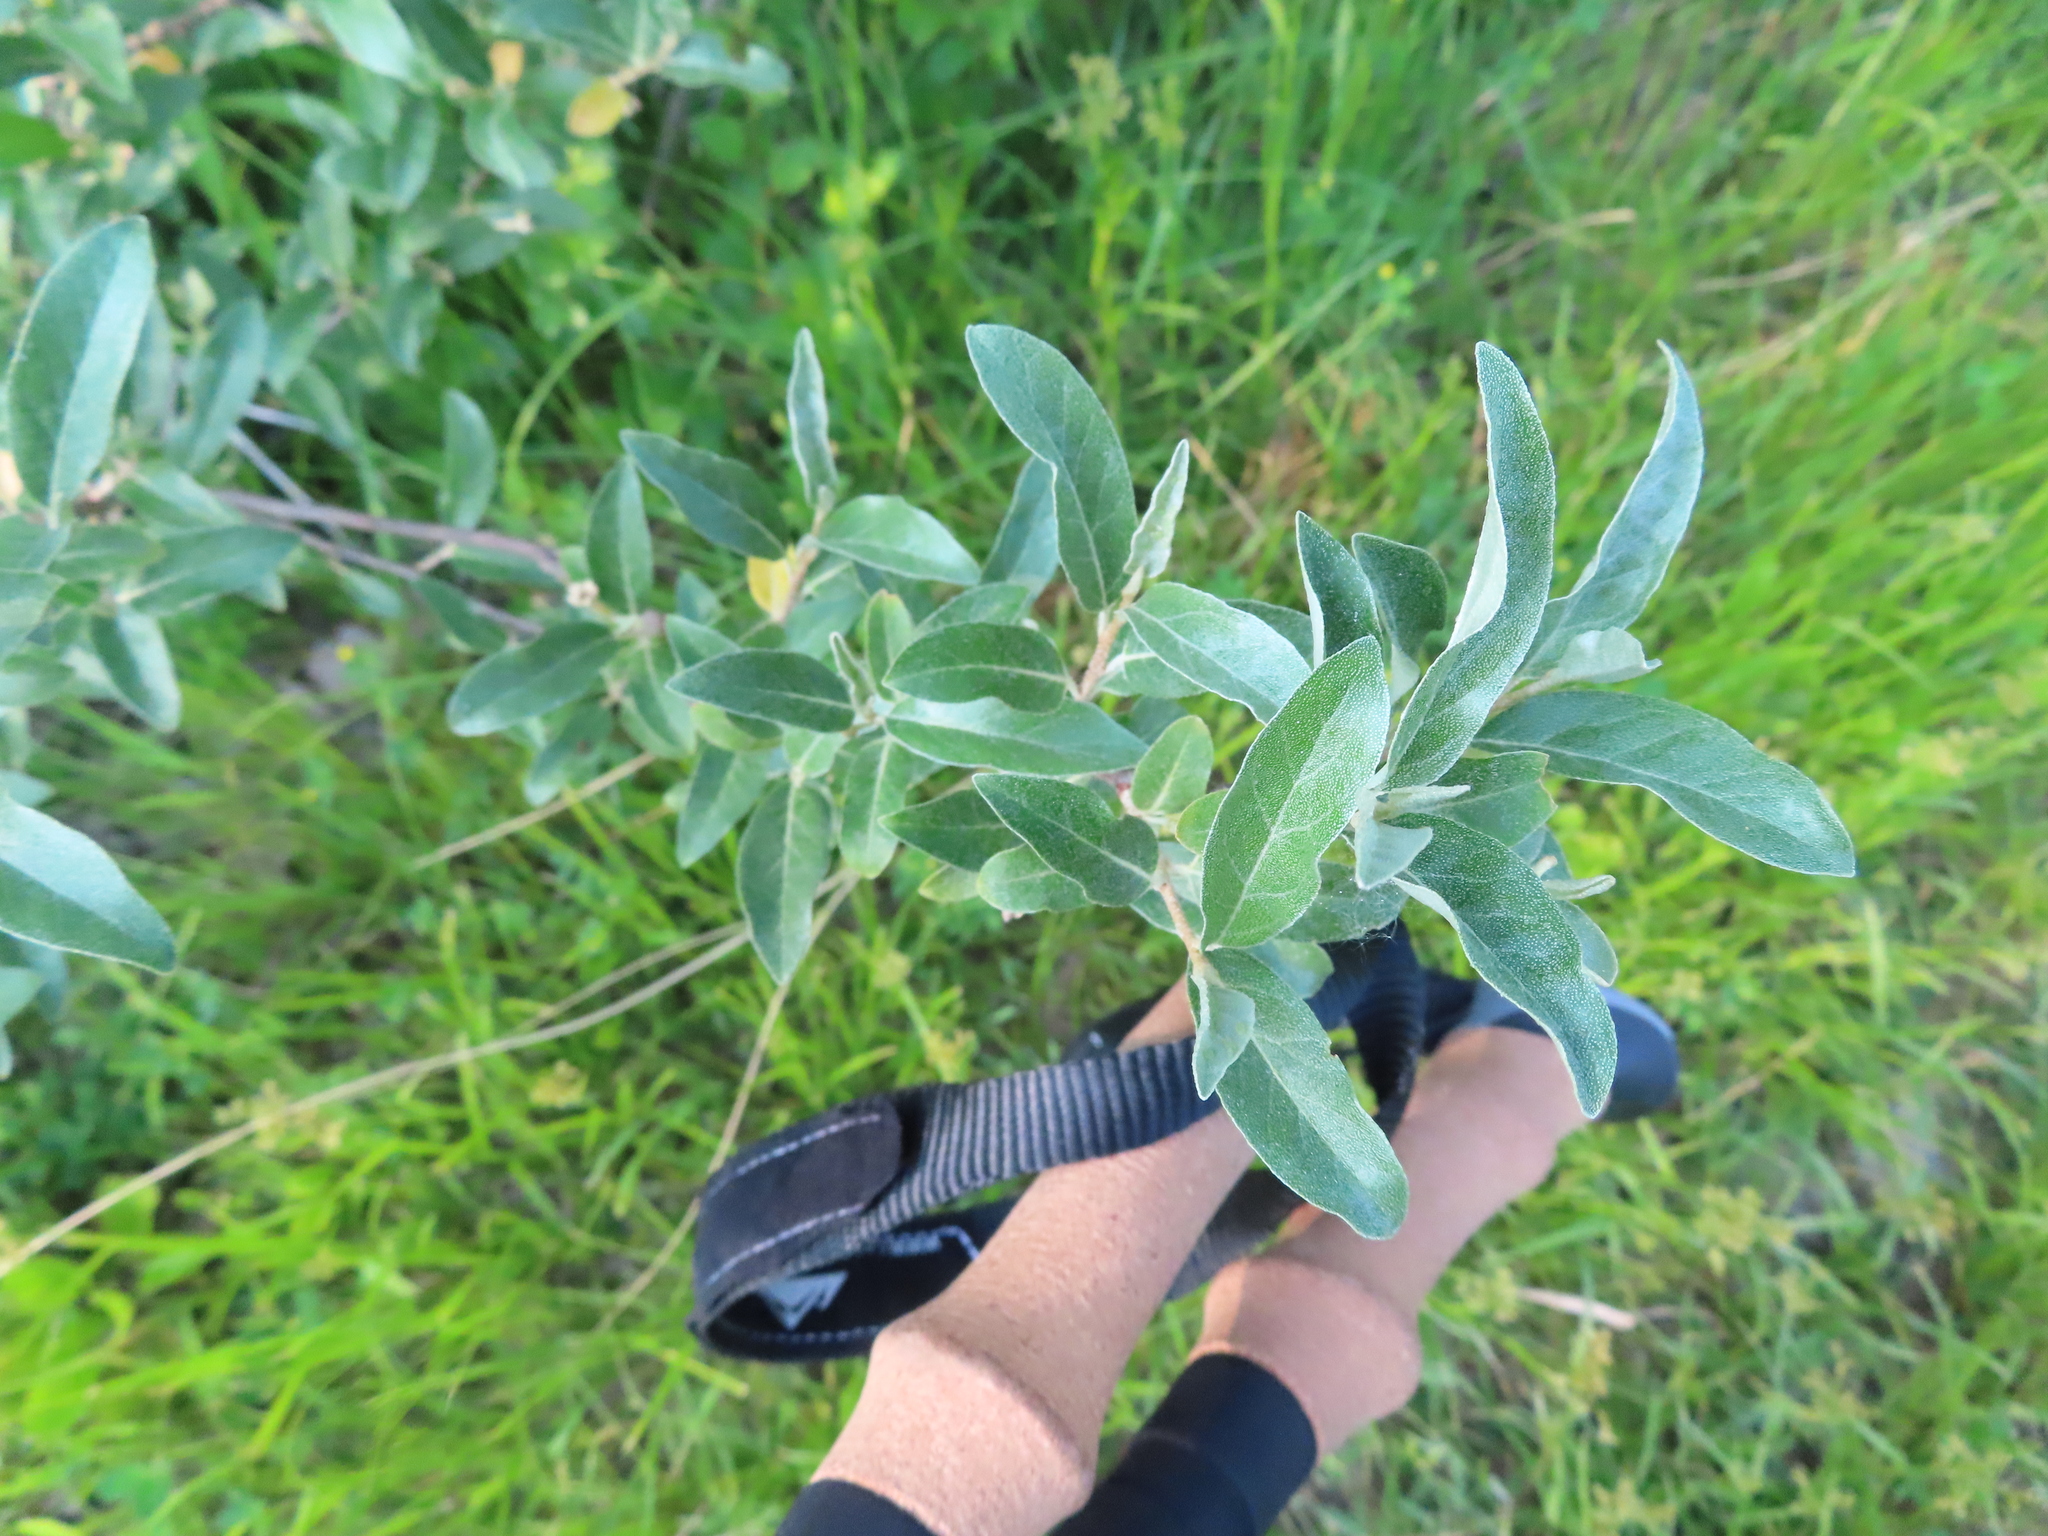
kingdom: Plantae
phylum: Tracheophyta
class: Magnoliopsida
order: Rosales
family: Elaeagnaceae
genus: Elaeagnus
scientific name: Elaeagnus umbellata
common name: Autumn olive
